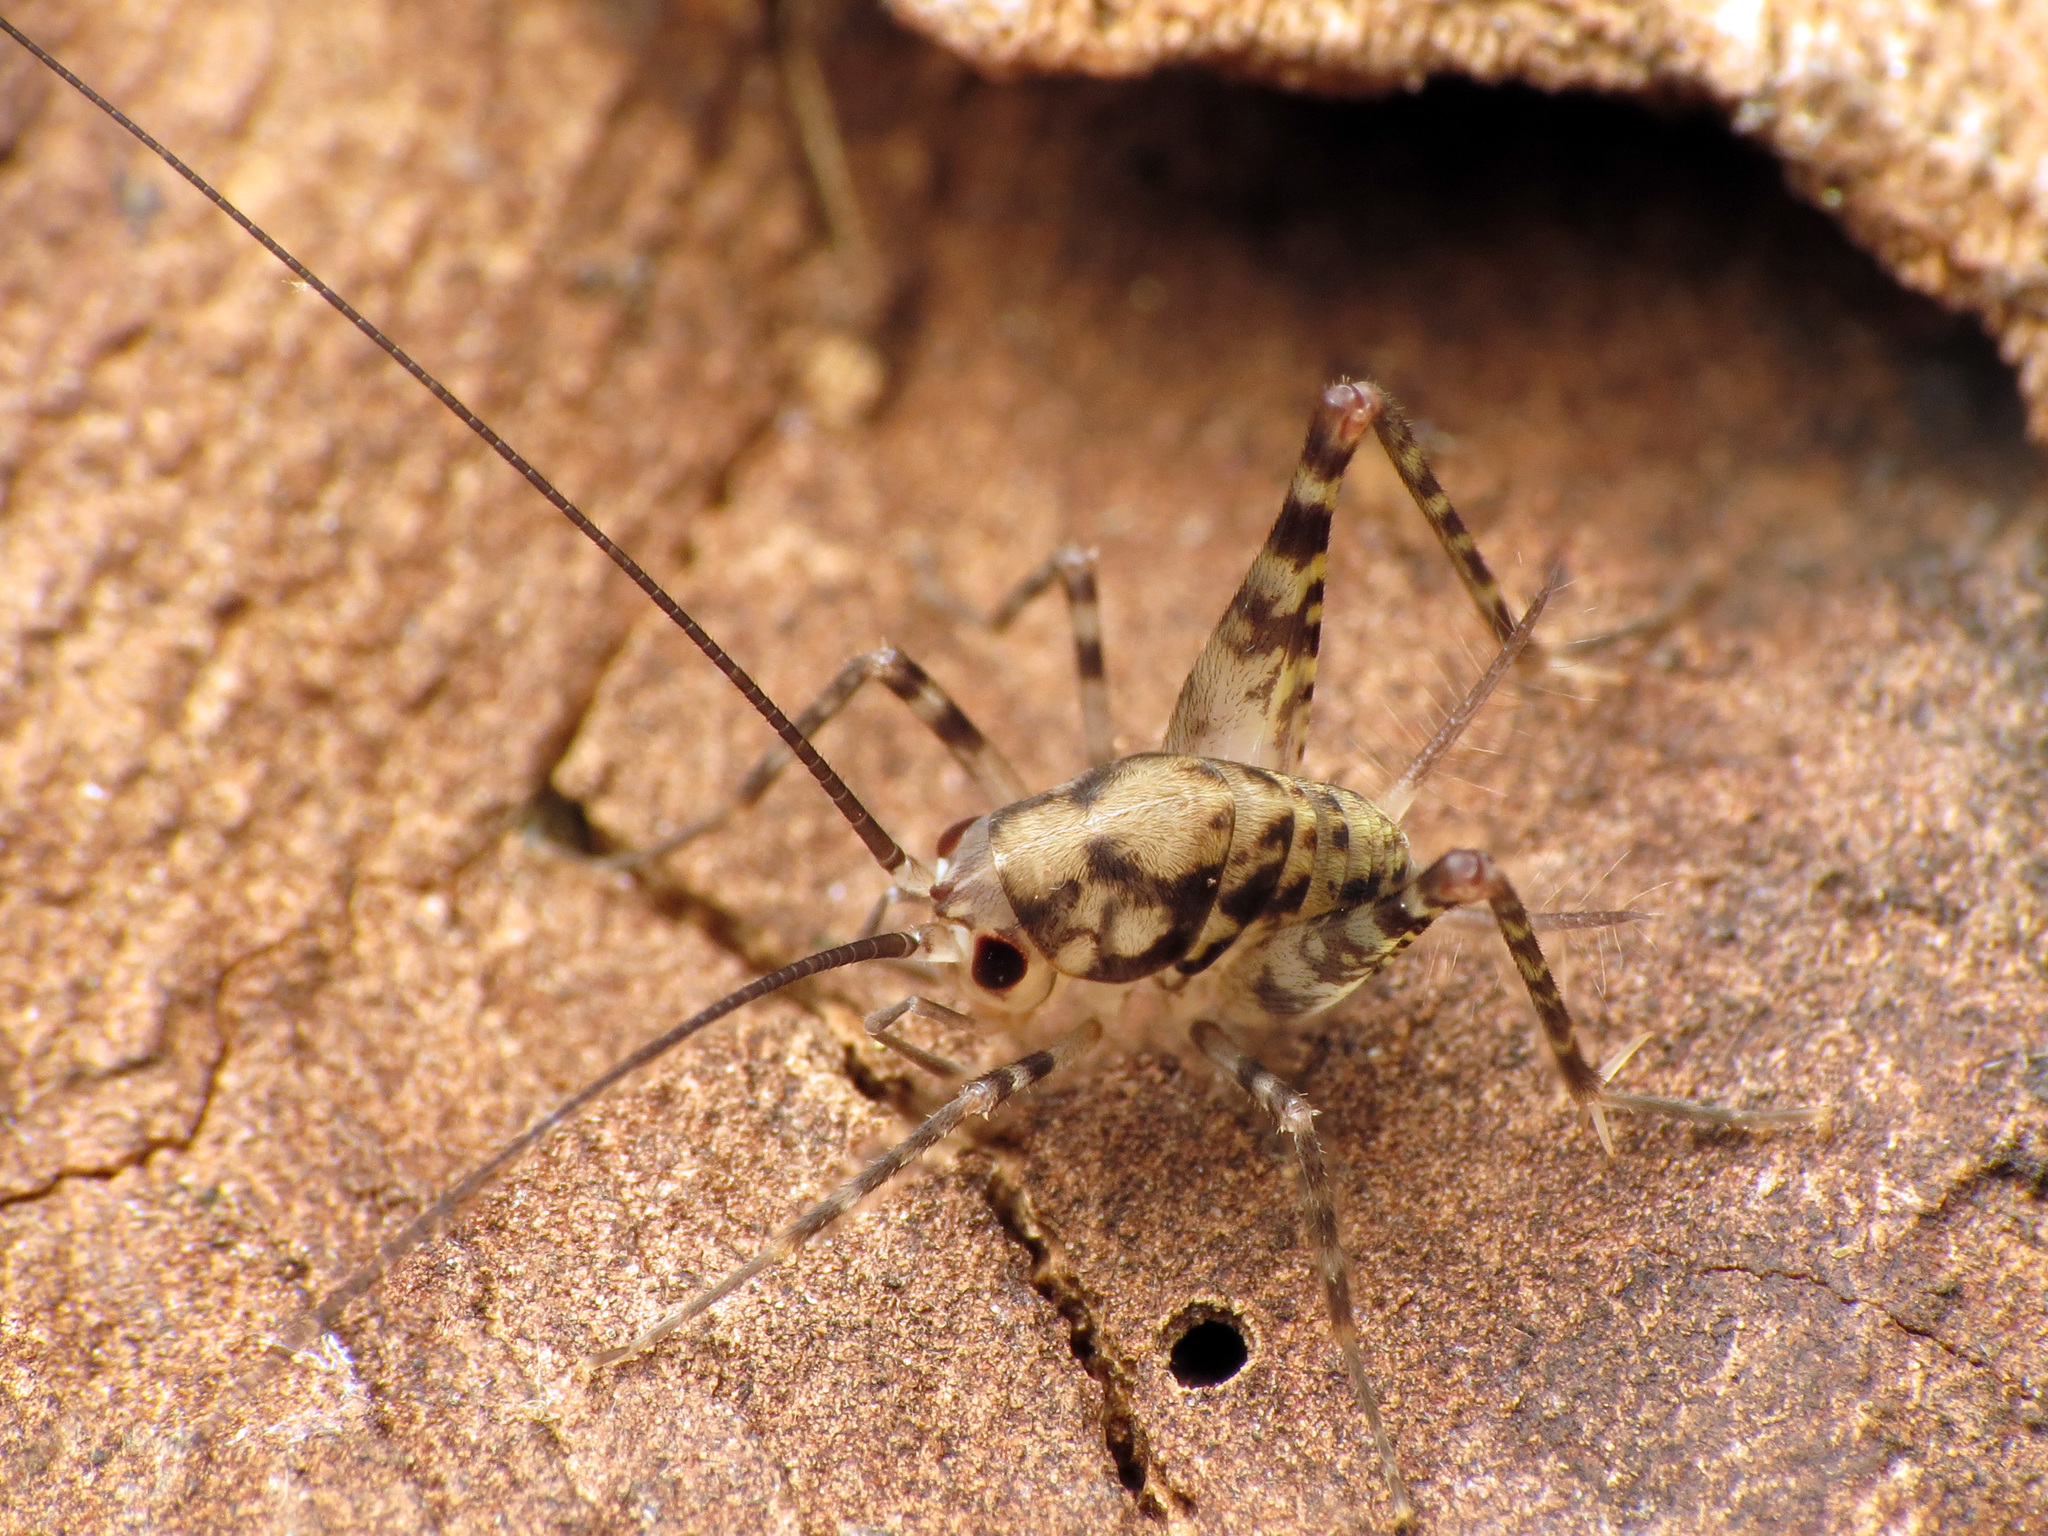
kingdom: Animalia
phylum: Arthropoda
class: Insecta
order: Orthoptera
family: Rhaphidophoridae
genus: Tachycines
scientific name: Tachycines asynamorus
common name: Greenhouse camel cricket
